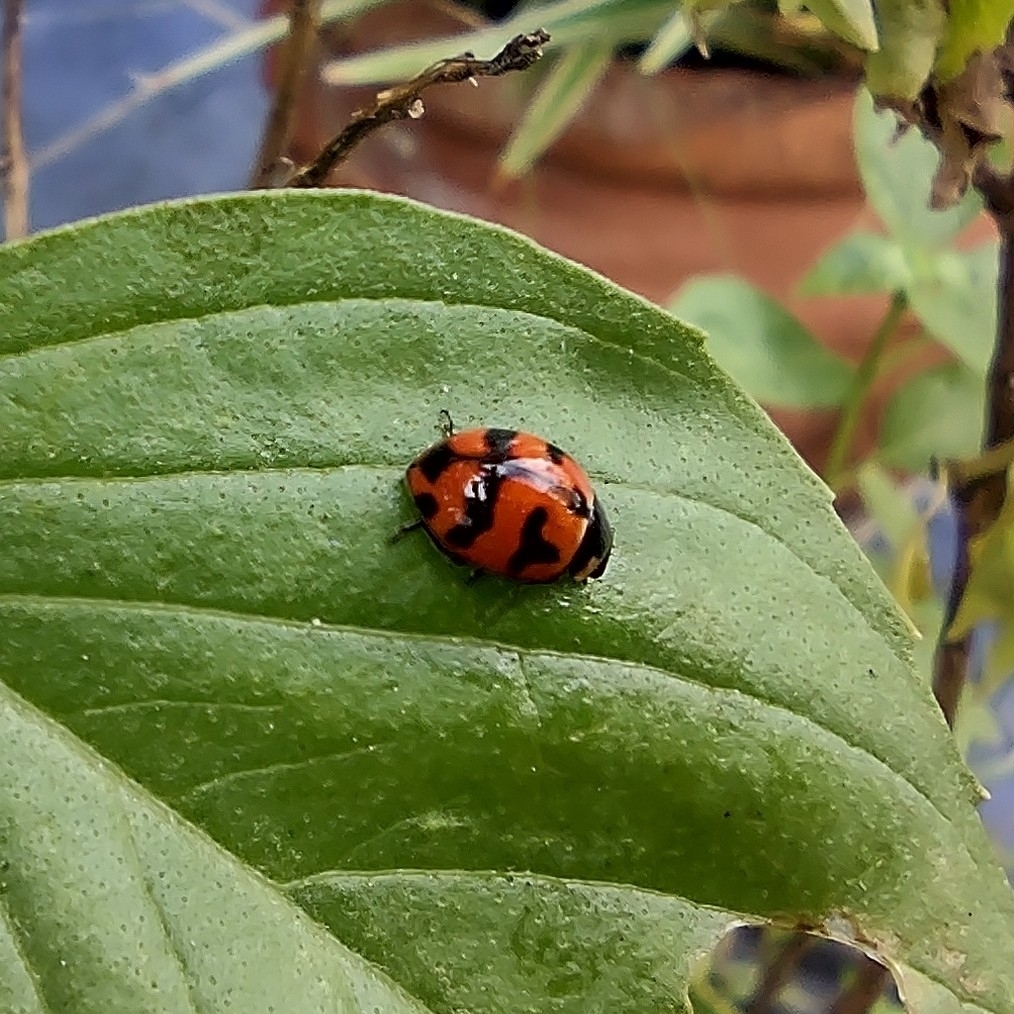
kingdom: Animalia
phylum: Arthropoda
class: Insecta
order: Coleoptera
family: Coccinellidae
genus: Coccinella
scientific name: Coccinella transversalis
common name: Transverse lady beetle
